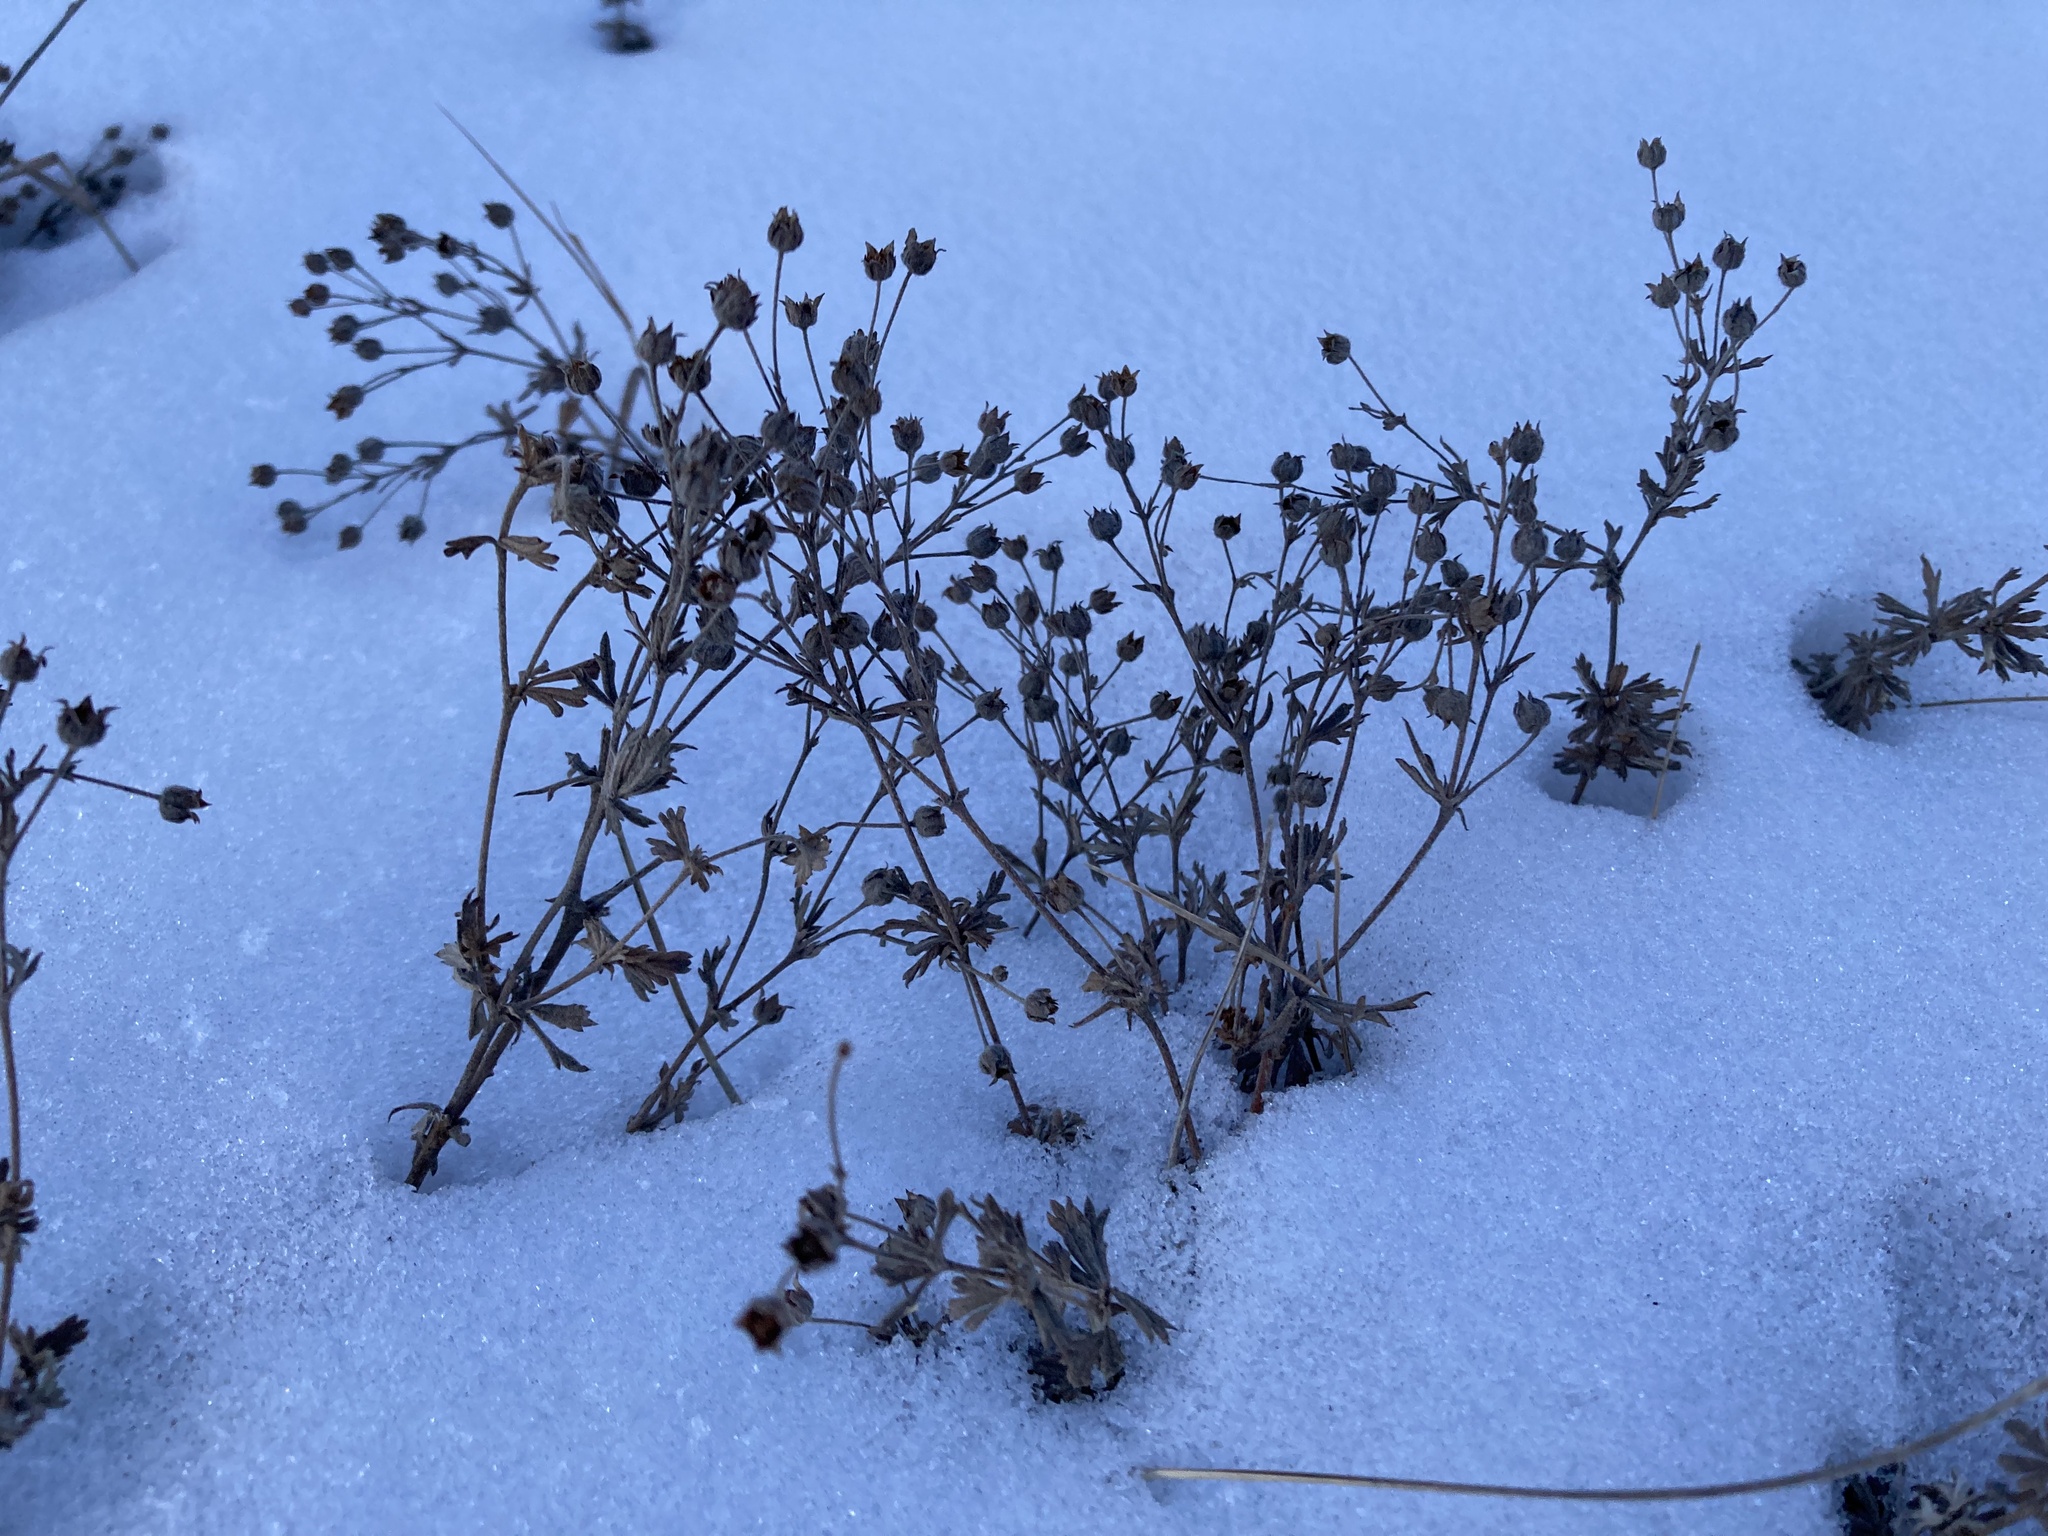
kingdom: Plantae
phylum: Tracheophyta
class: Magnoliopsida
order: Rosales
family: Rosaceae
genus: Potentilla
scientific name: Potentilla argentea
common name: Hoary cinquefoil
